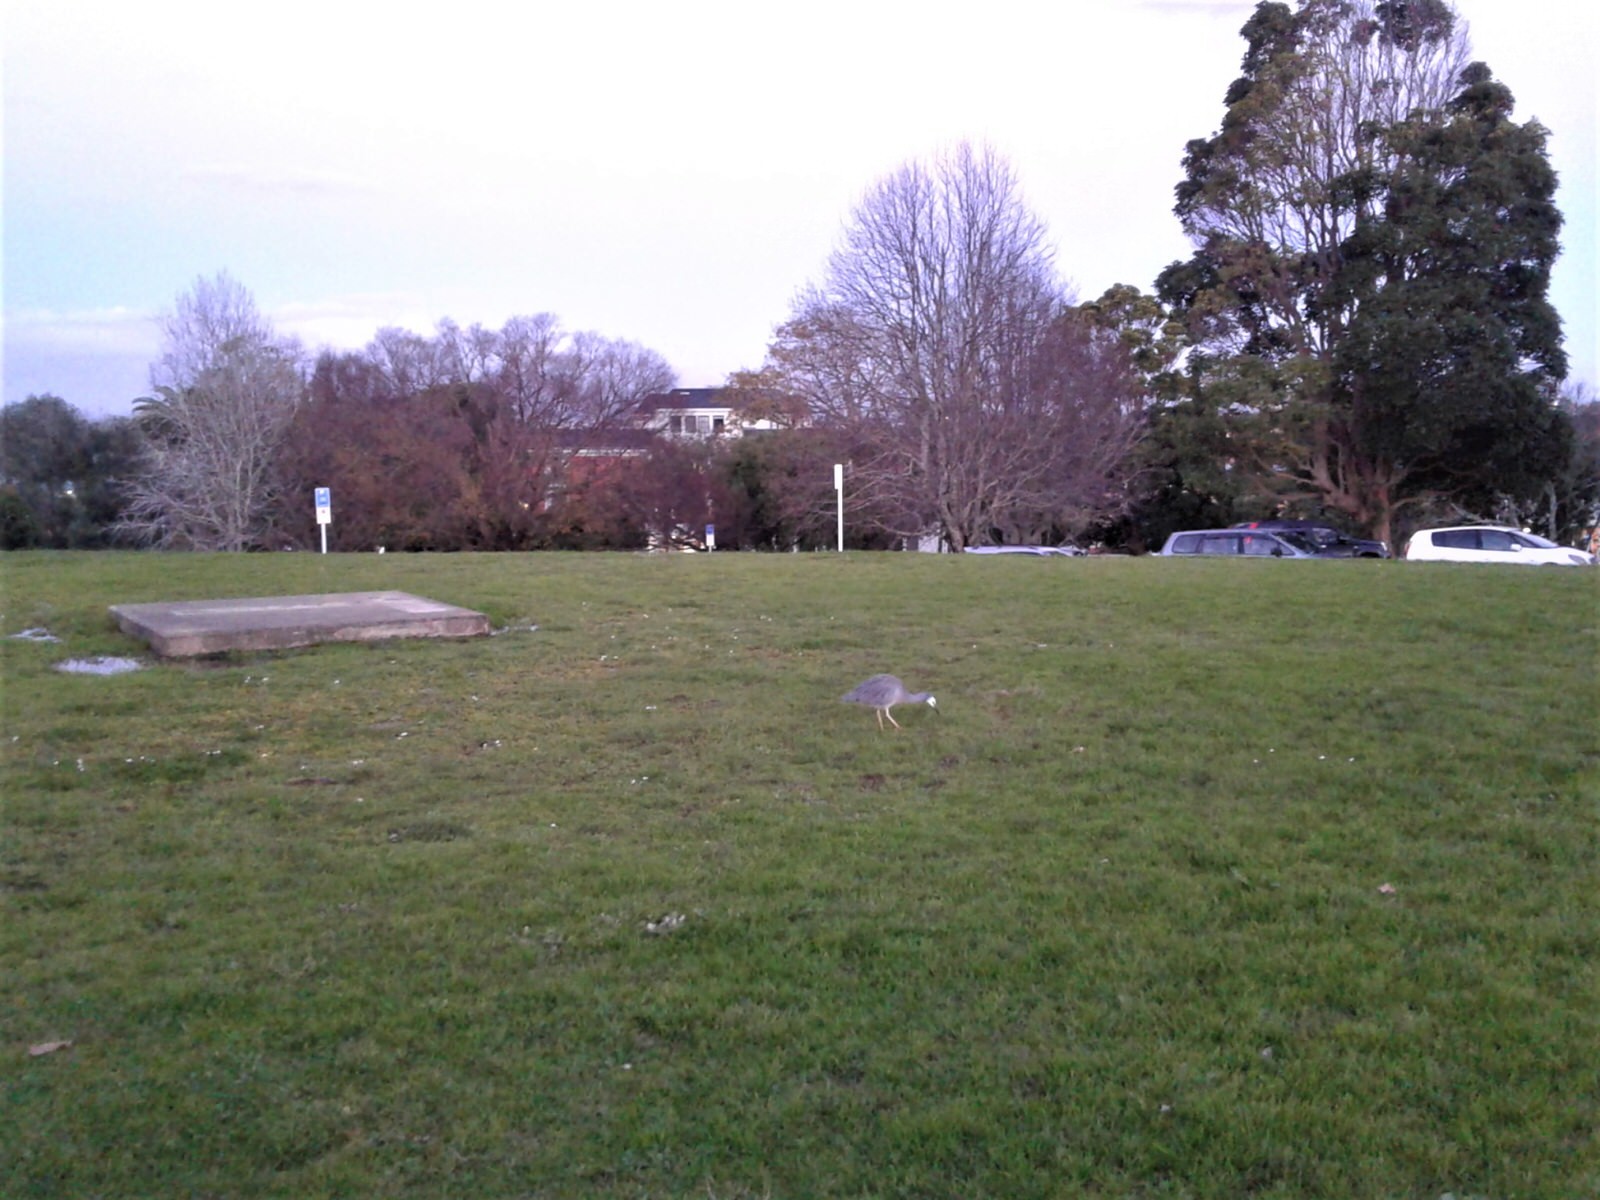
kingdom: Animalia
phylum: Chordata
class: Aves
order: Pelecaniformes
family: Ardeidae
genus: Egretta
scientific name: Egretta novaehollandiae
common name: White-faced heron
